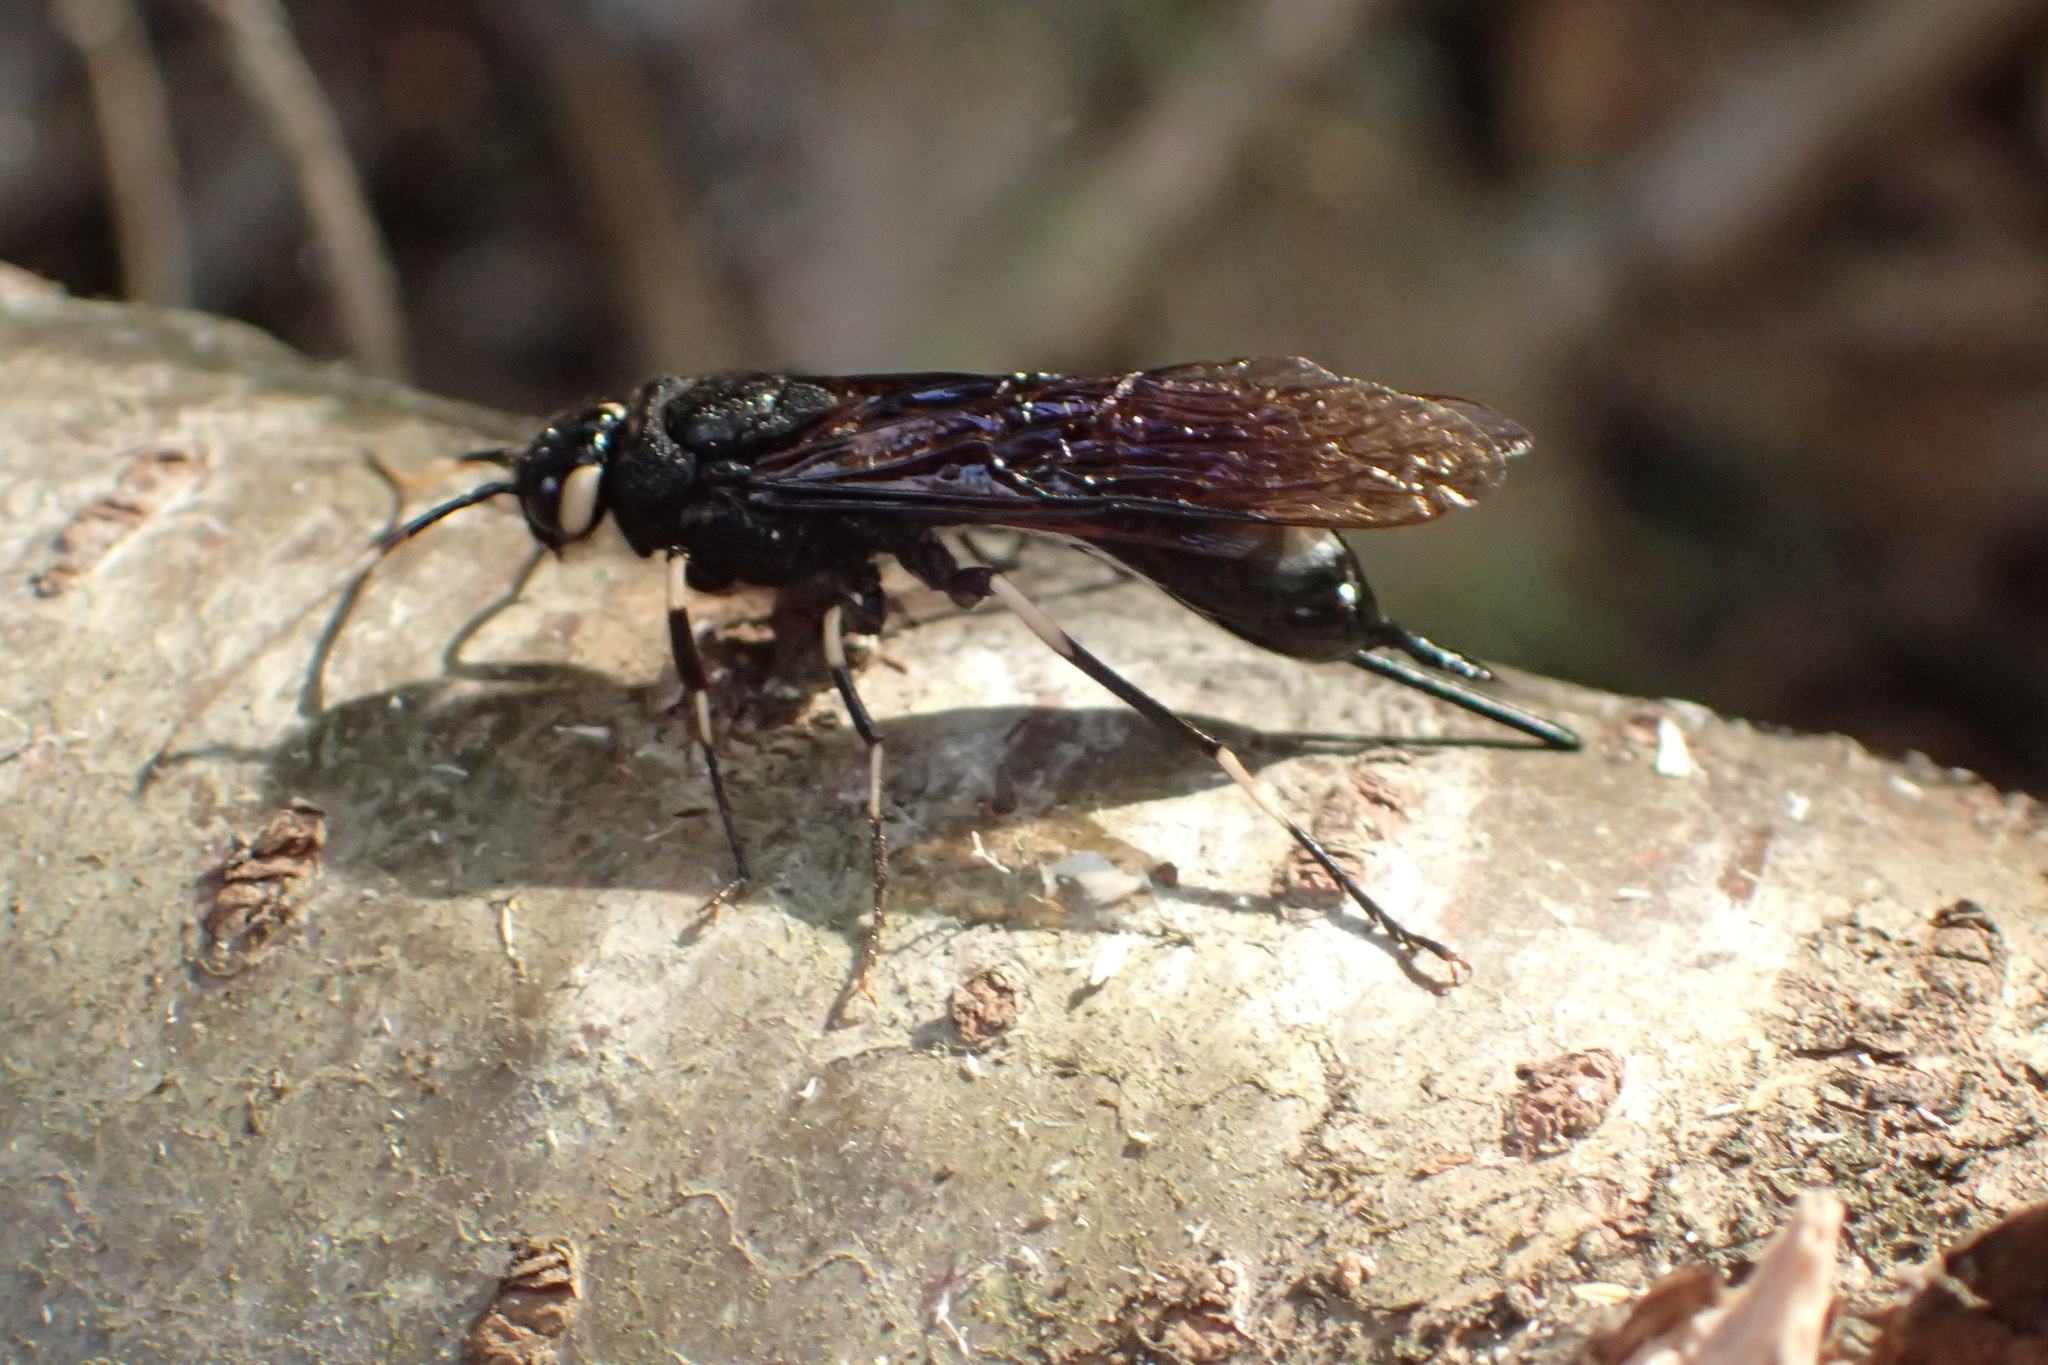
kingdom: Animalia
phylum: Arthropoda
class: Insecta
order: Hymenoptera
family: Siricidae
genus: Urocerus
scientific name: Urocerus albicornis
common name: White-horned horntail
